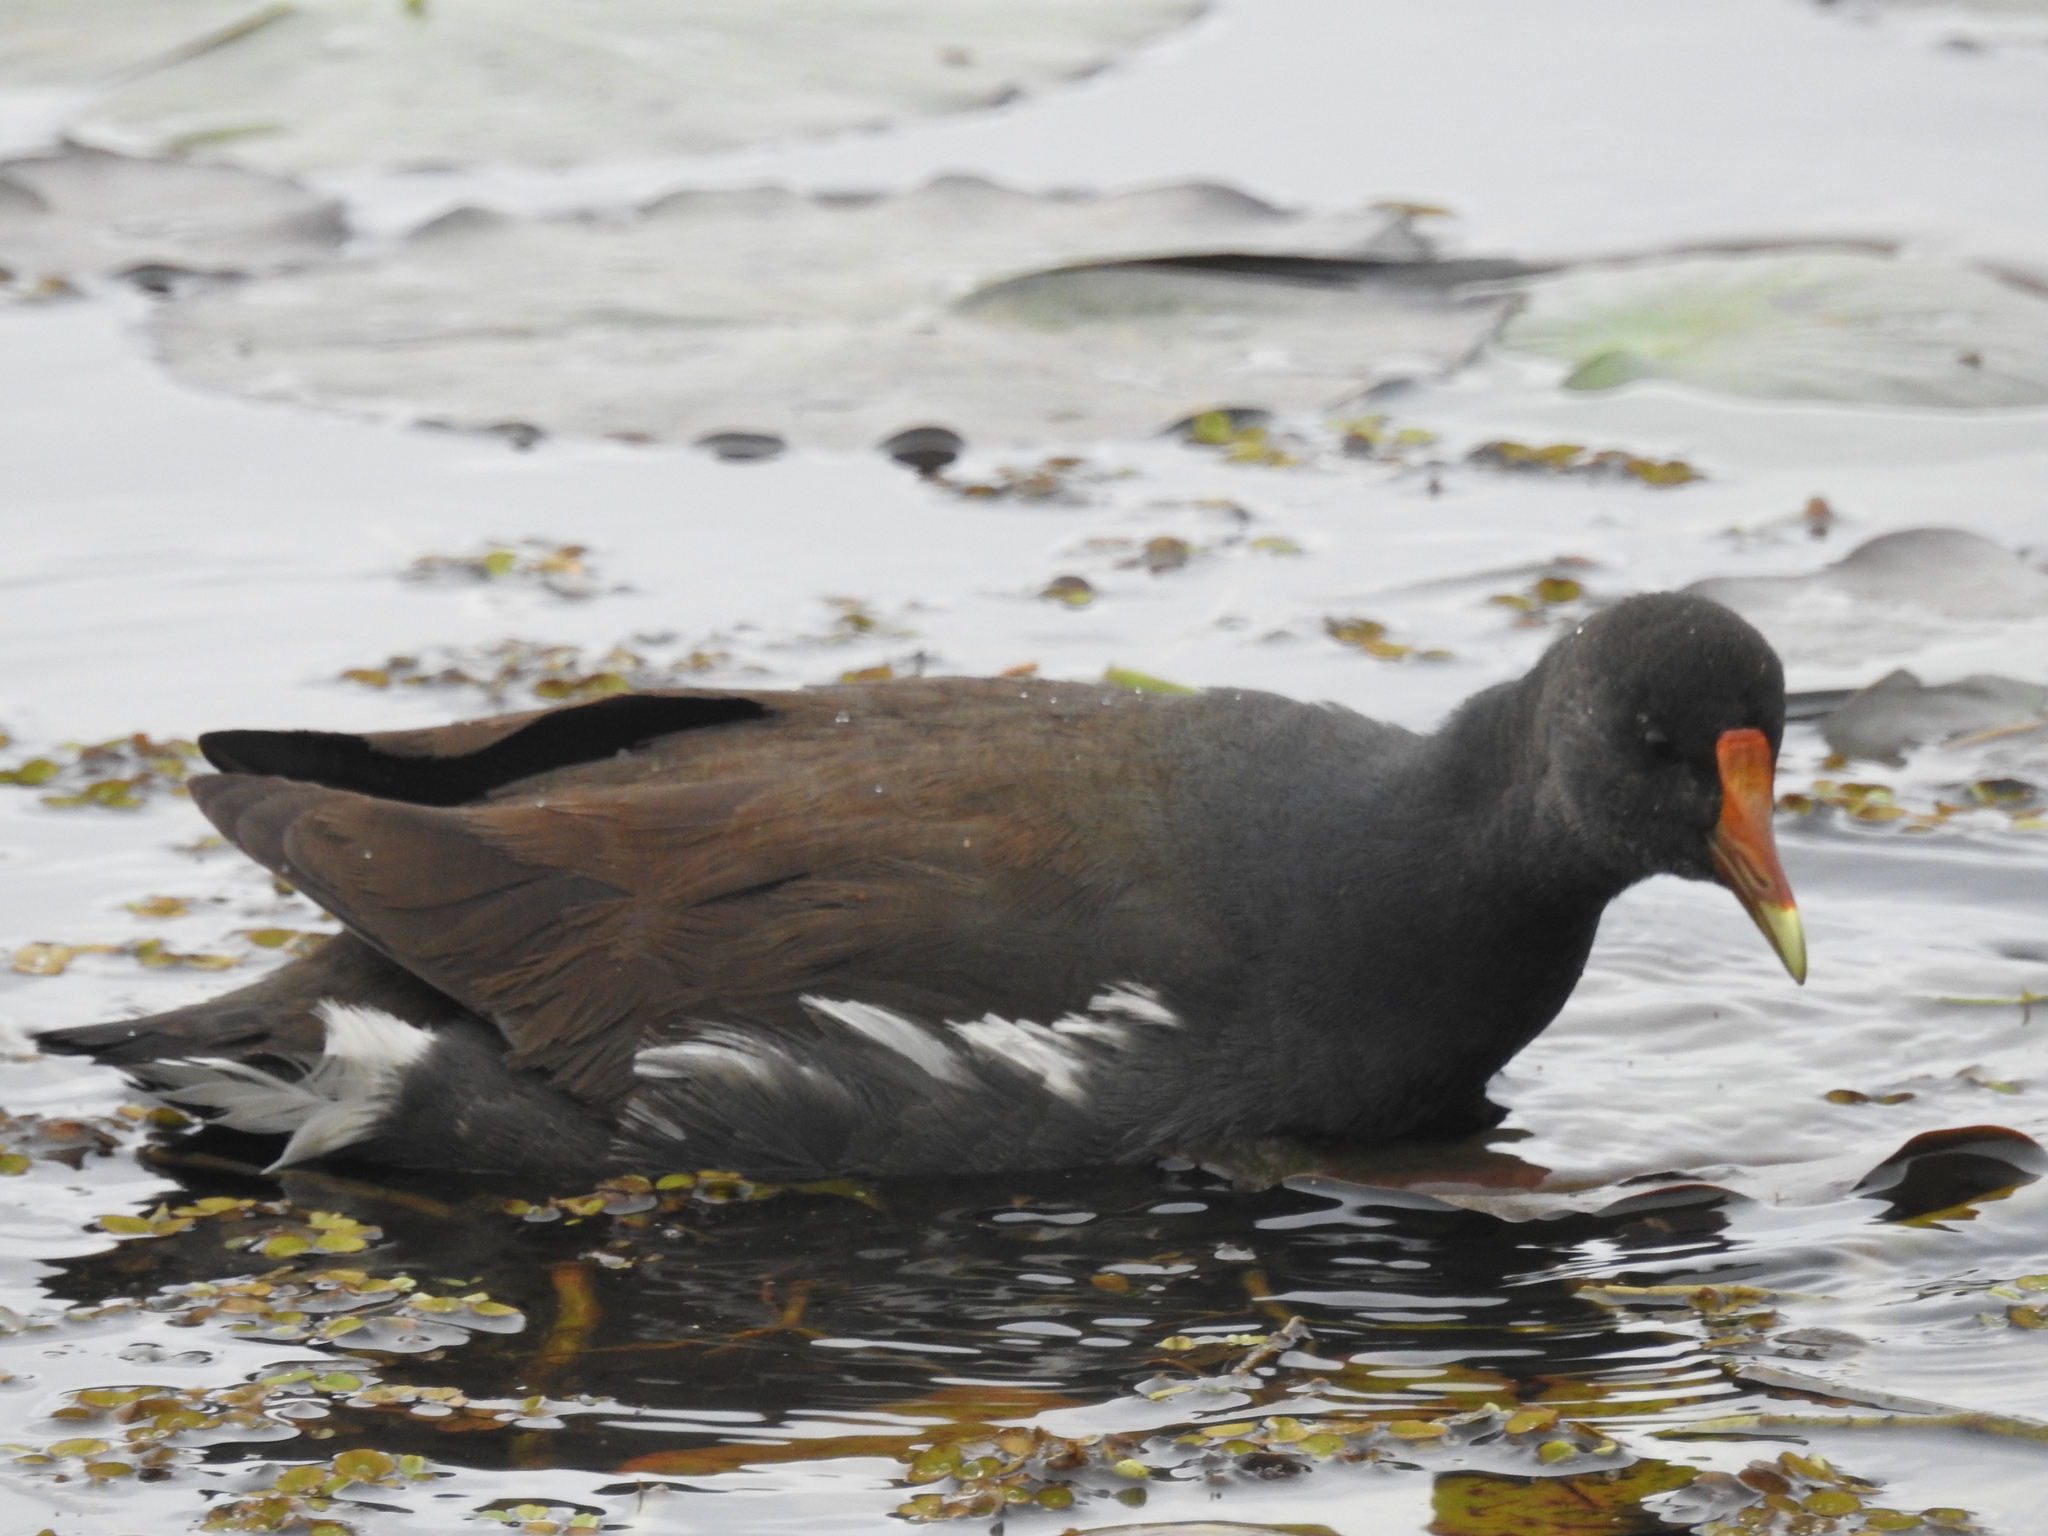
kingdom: Animalia
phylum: Chordata
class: Aves
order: Gruiformes
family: Rallidae
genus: Gallinula
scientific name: Gallinula chloropus
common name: Common moorhen
